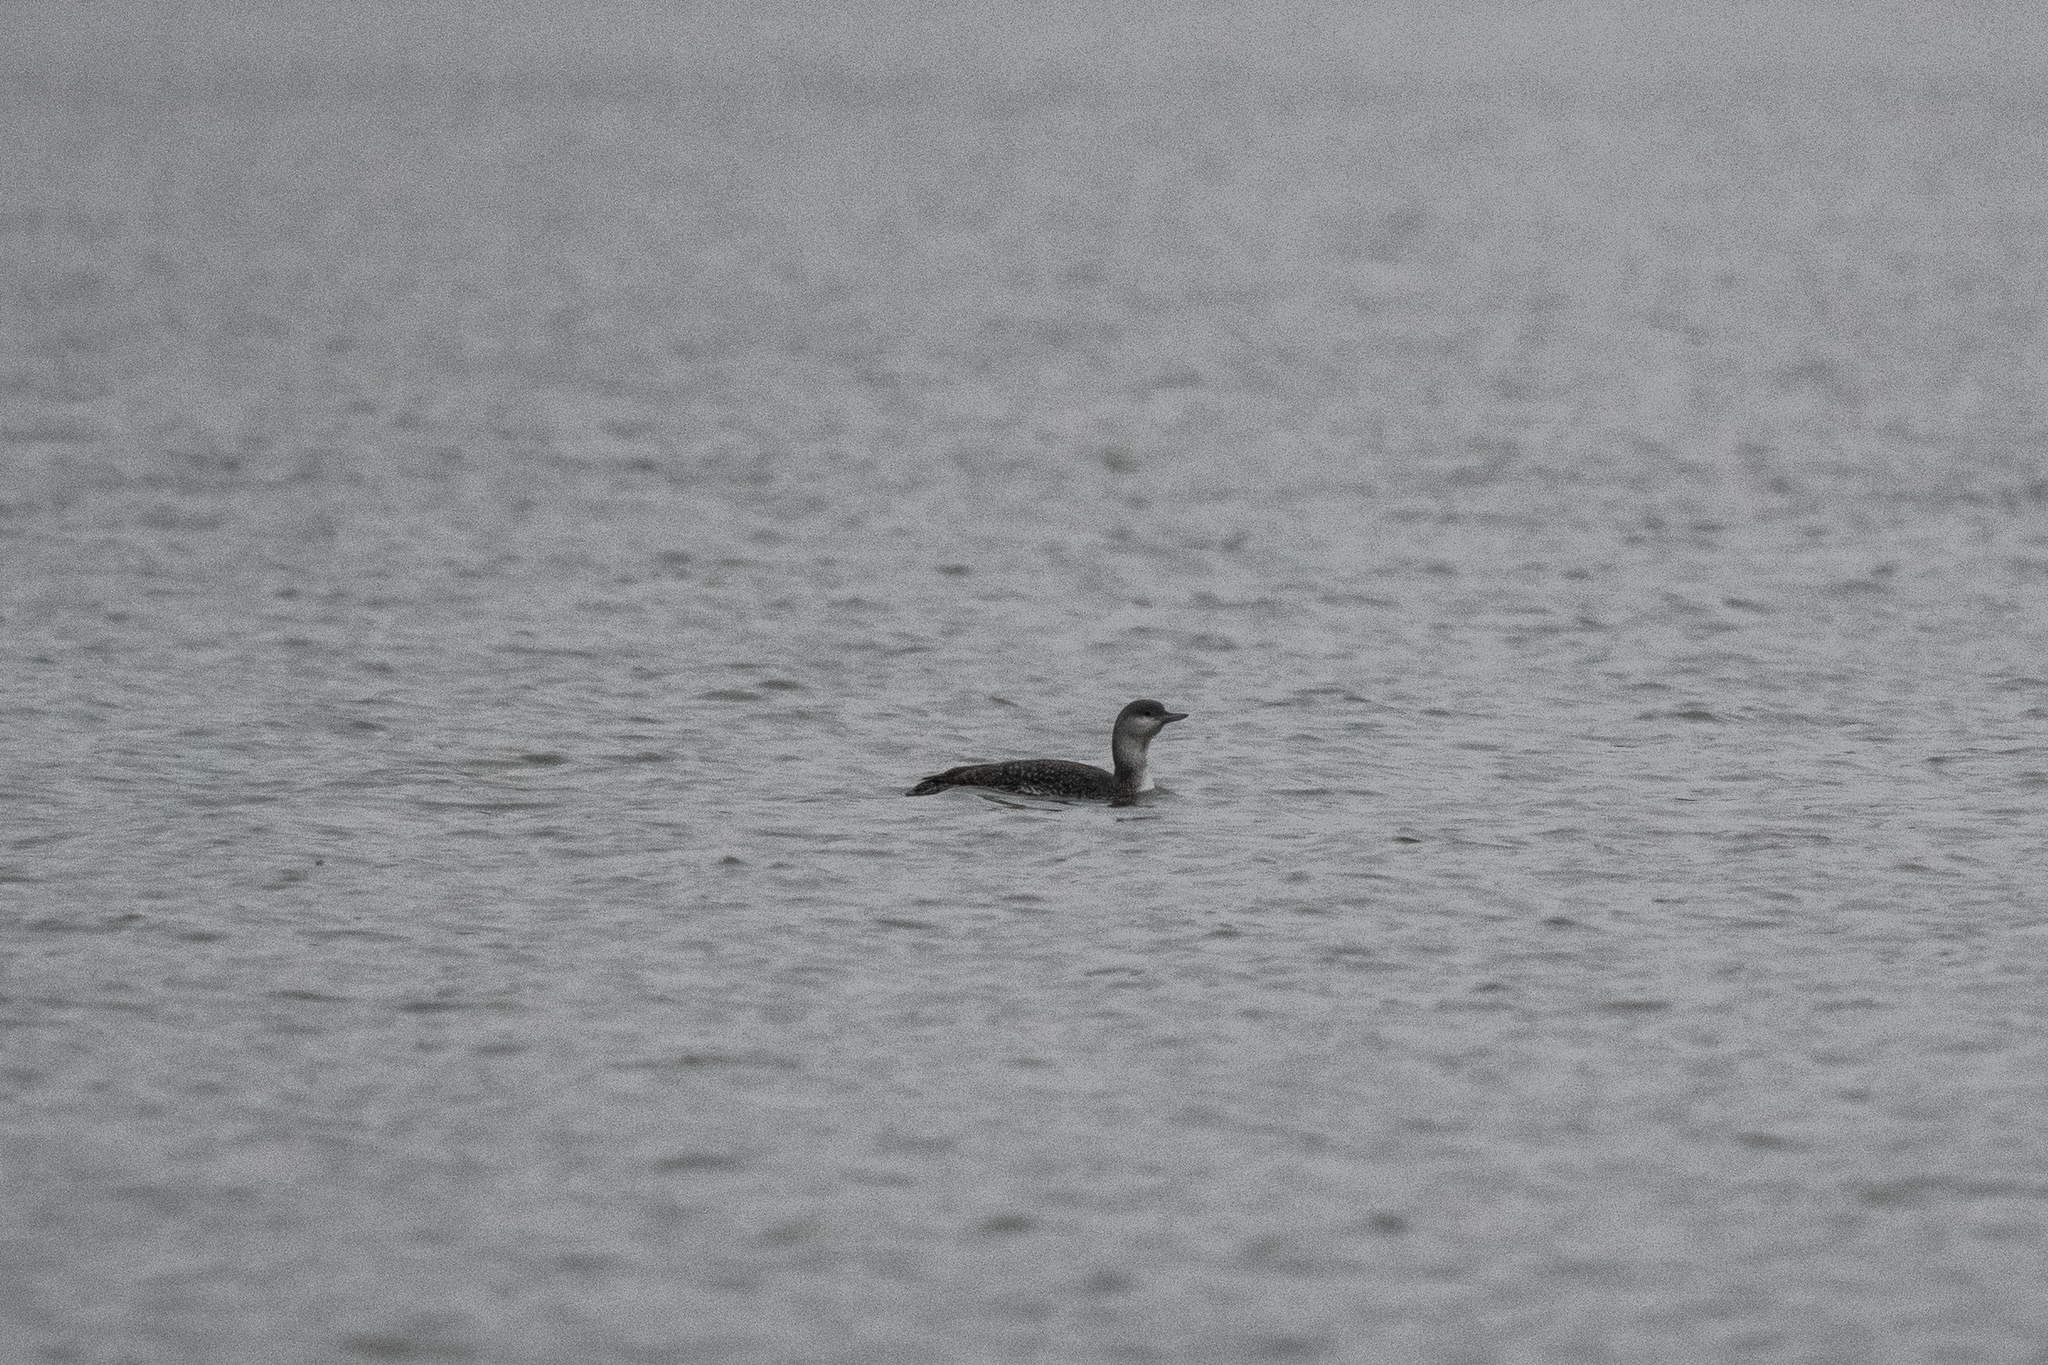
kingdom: Animalia
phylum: Chordata
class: Aves
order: Gaviiformes
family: Gaviidae
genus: Gavia
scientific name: Gavia stellata
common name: Red-throated loon
